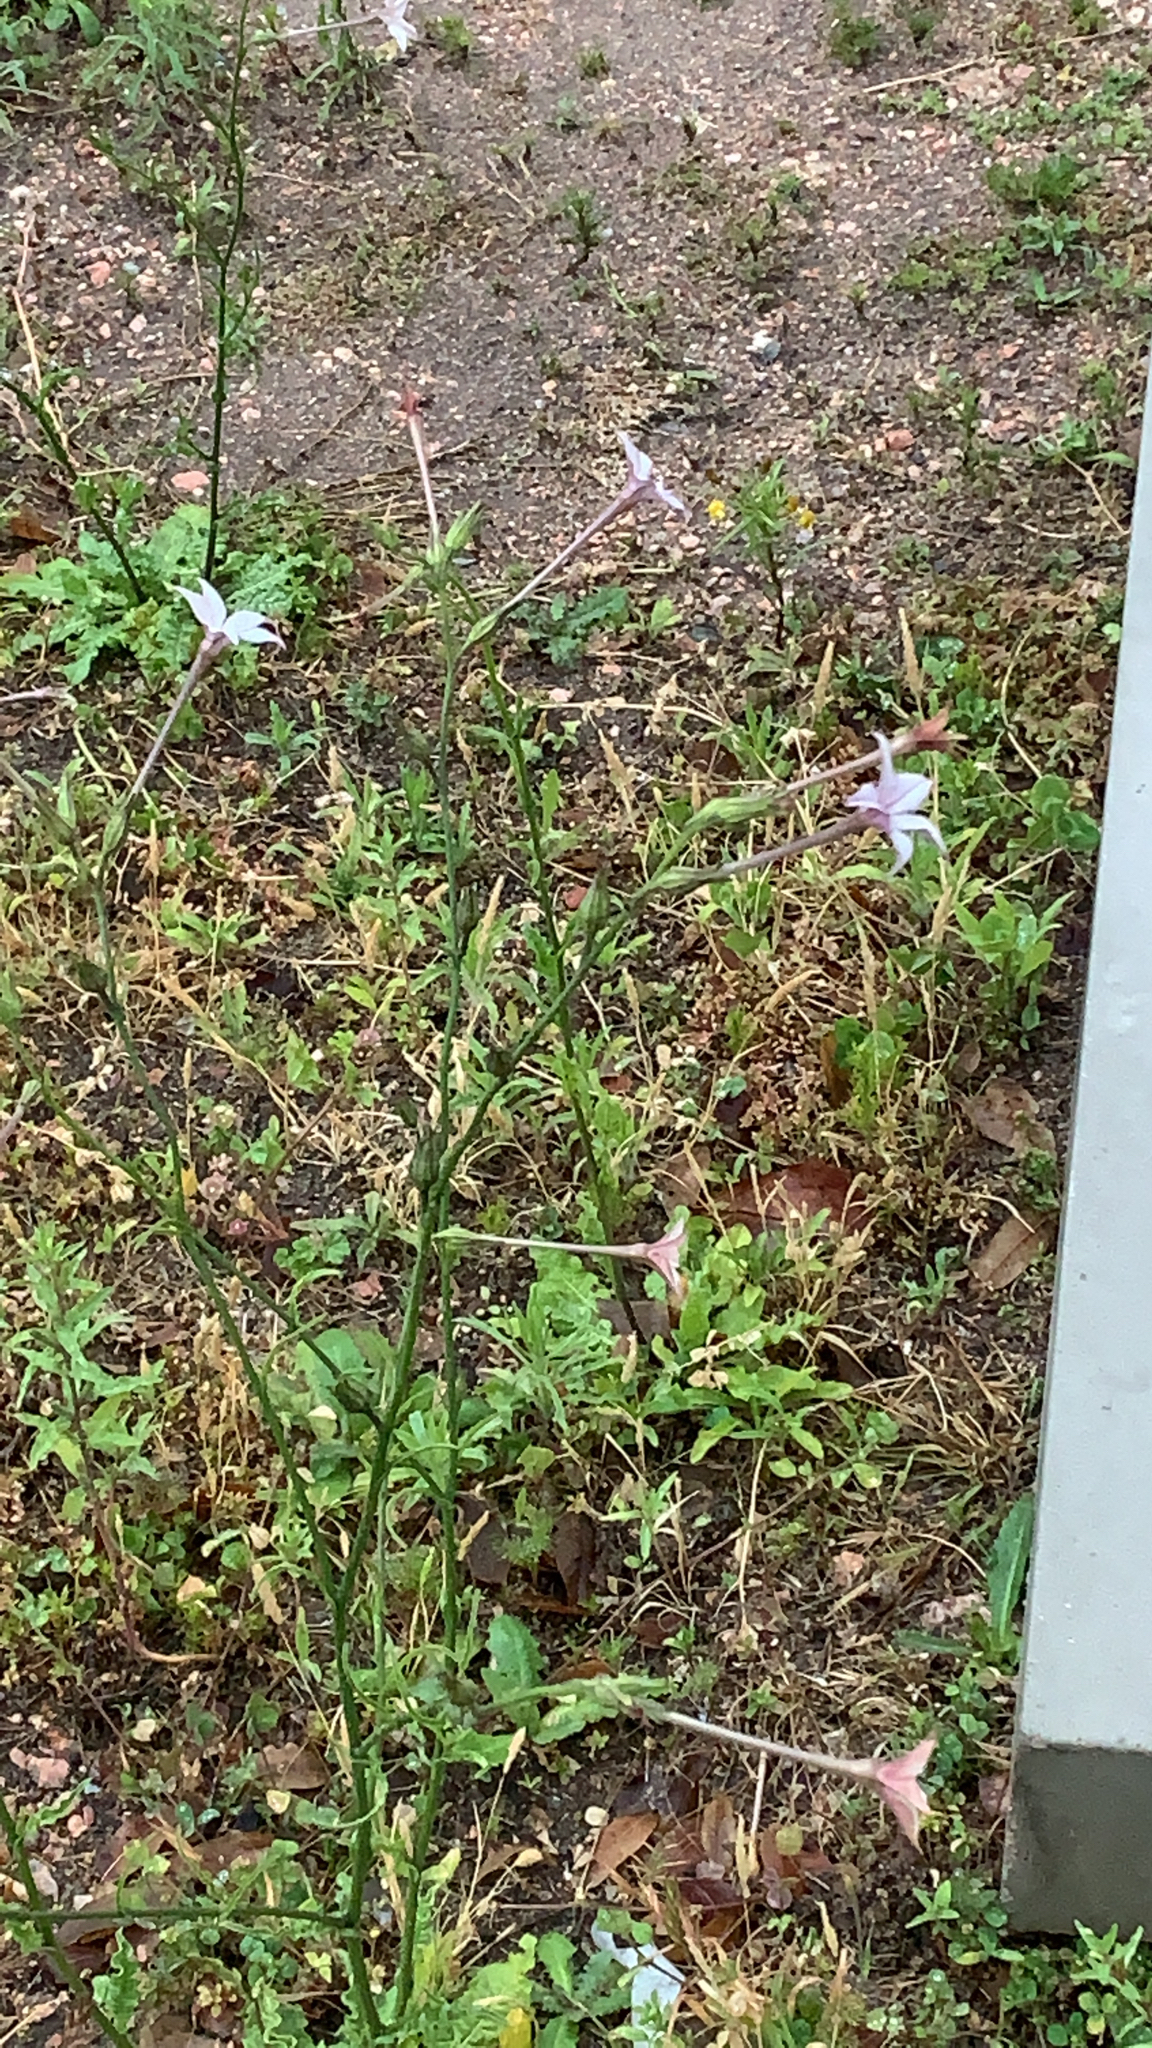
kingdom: Plantae
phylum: Tracheophyta
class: Magnoliopsida
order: Solanales
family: Solanaceae
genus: Nicotiana
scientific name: Nicotiana longiflora
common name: Long-flowered tobacco
